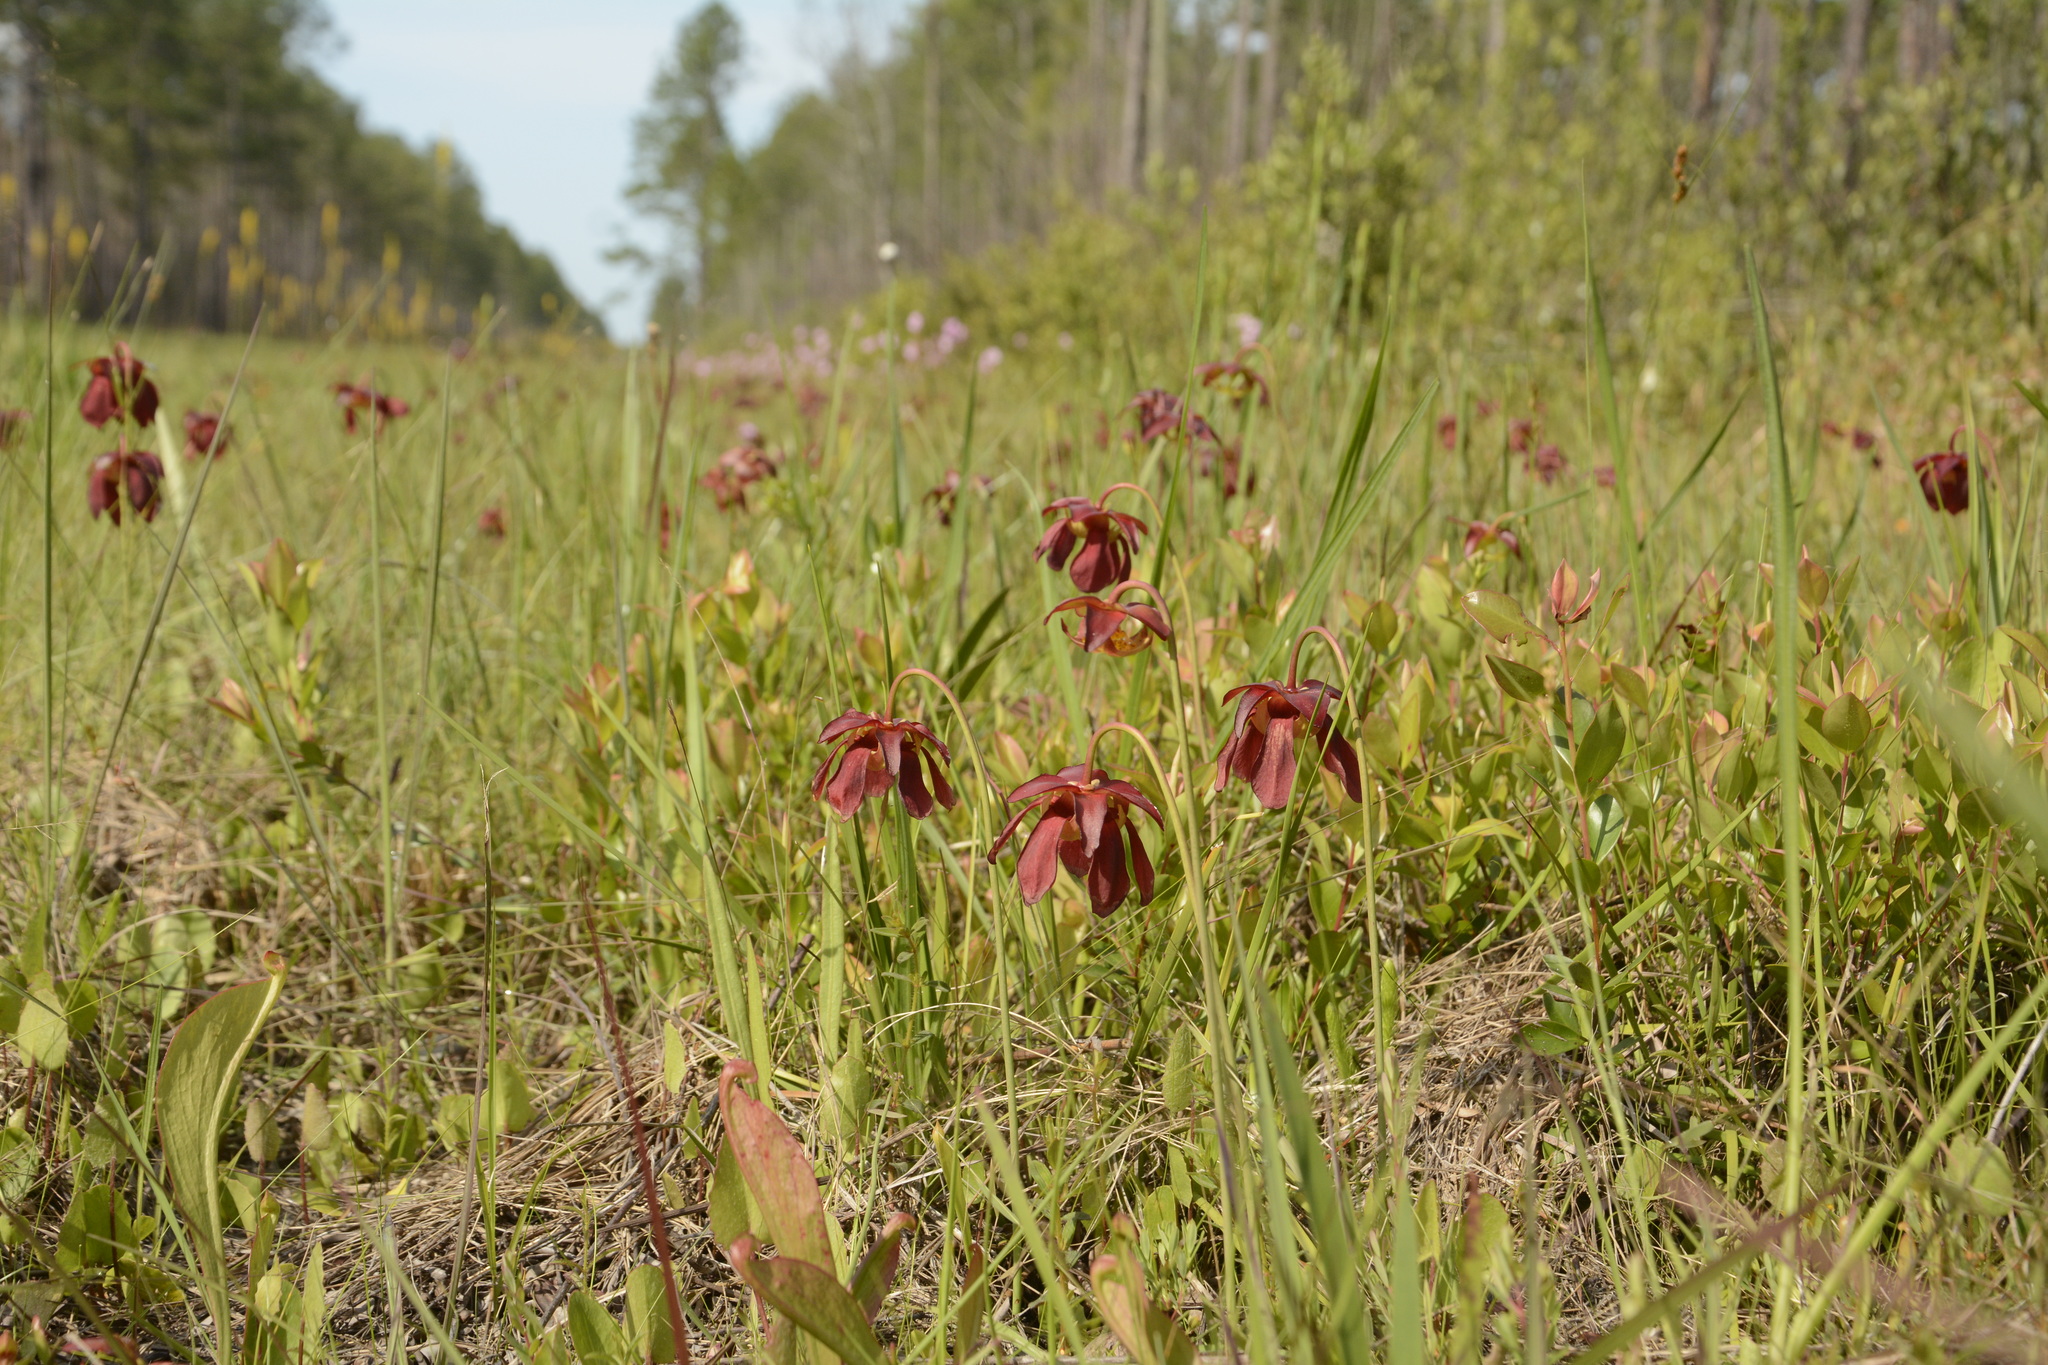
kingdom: Plantae
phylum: Tracheophyta
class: Magnoliopsida
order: Ericales
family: Sarraceniaceae
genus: Sarracenia
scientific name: Sarracenia psittacina
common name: Parrot pitcherplant
